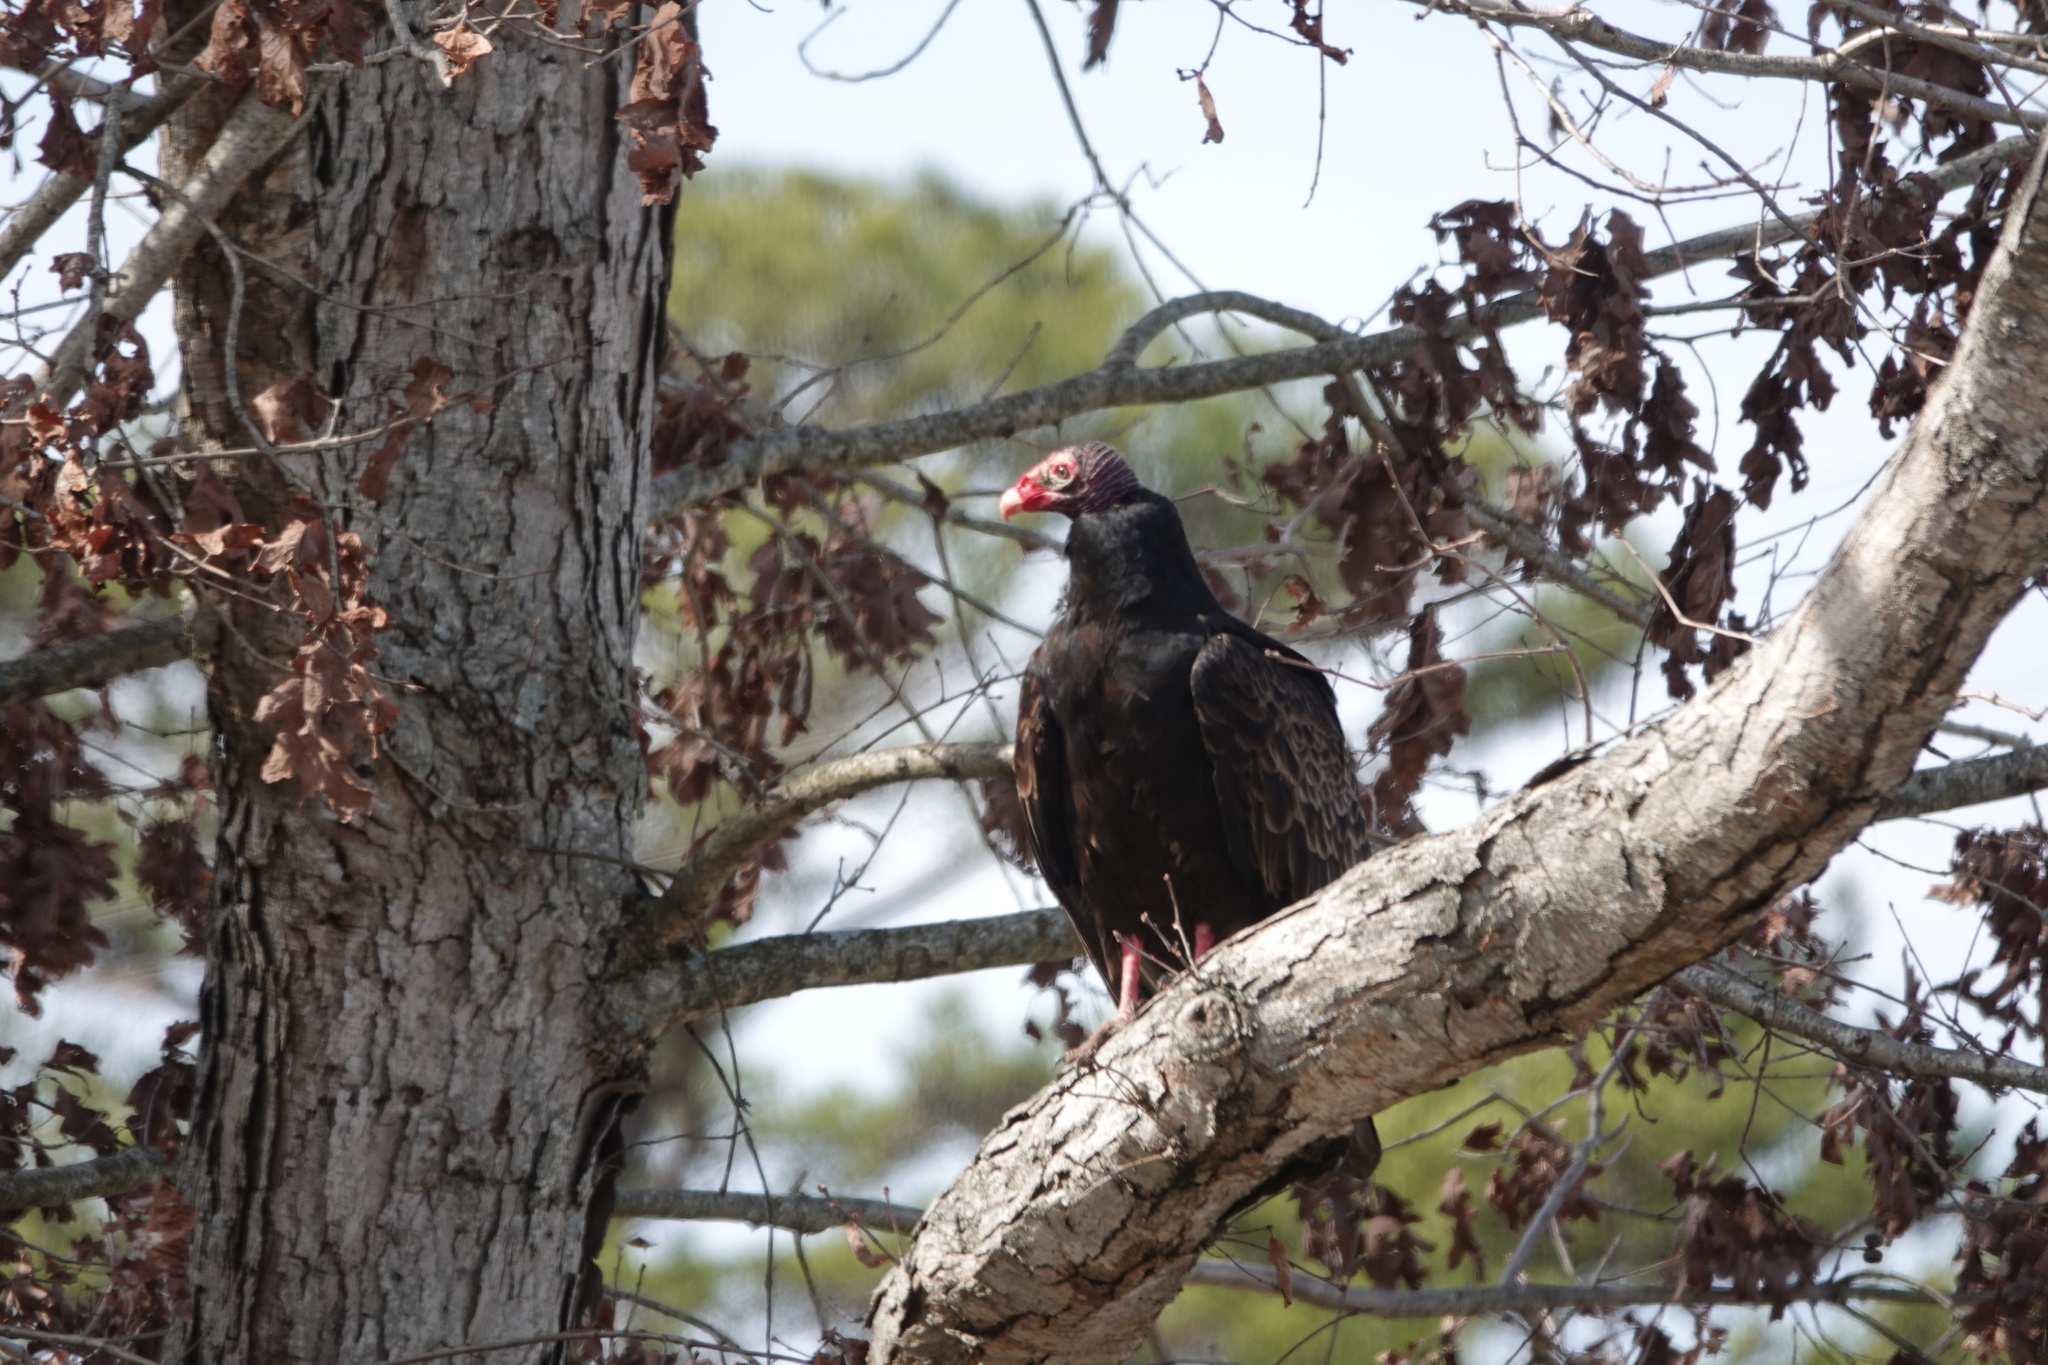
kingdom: Animalia
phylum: Chordata
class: Aves
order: Accipitriformes
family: Cathartidae
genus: Cathartes
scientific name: Cathartes aura
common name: Turkey vulture
